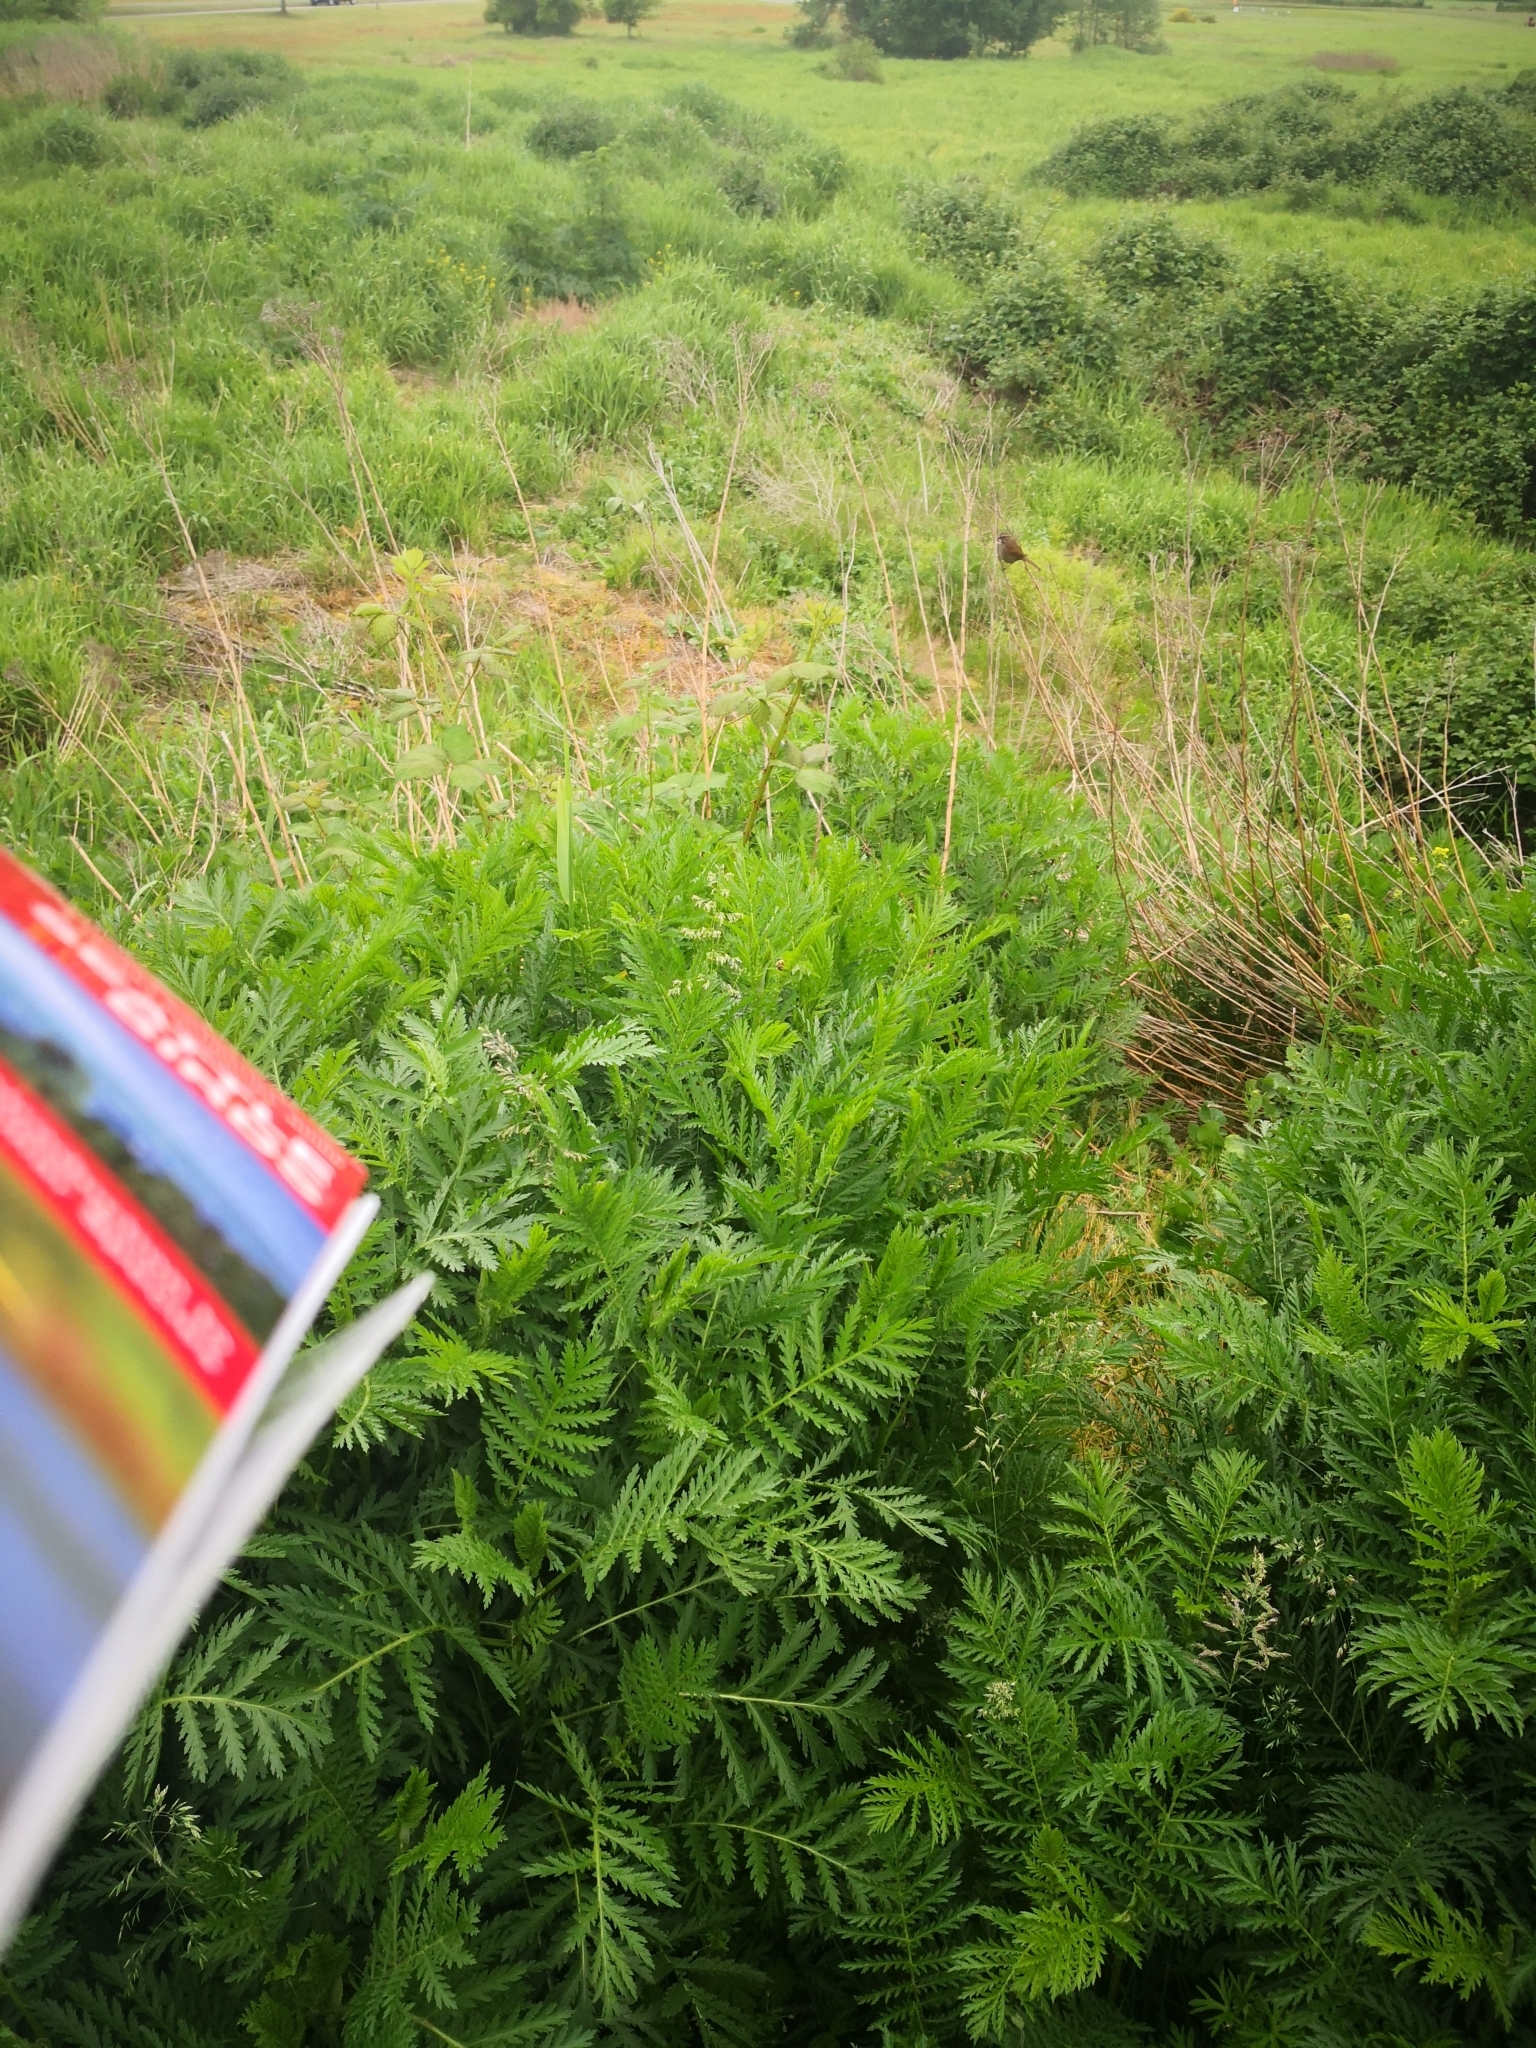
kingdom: Animalia
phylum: Chordata
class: Aves
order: Passeriformes
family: Passerellidae
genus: Melospiza
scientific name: Melospiza melodia
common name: Song sparrow
